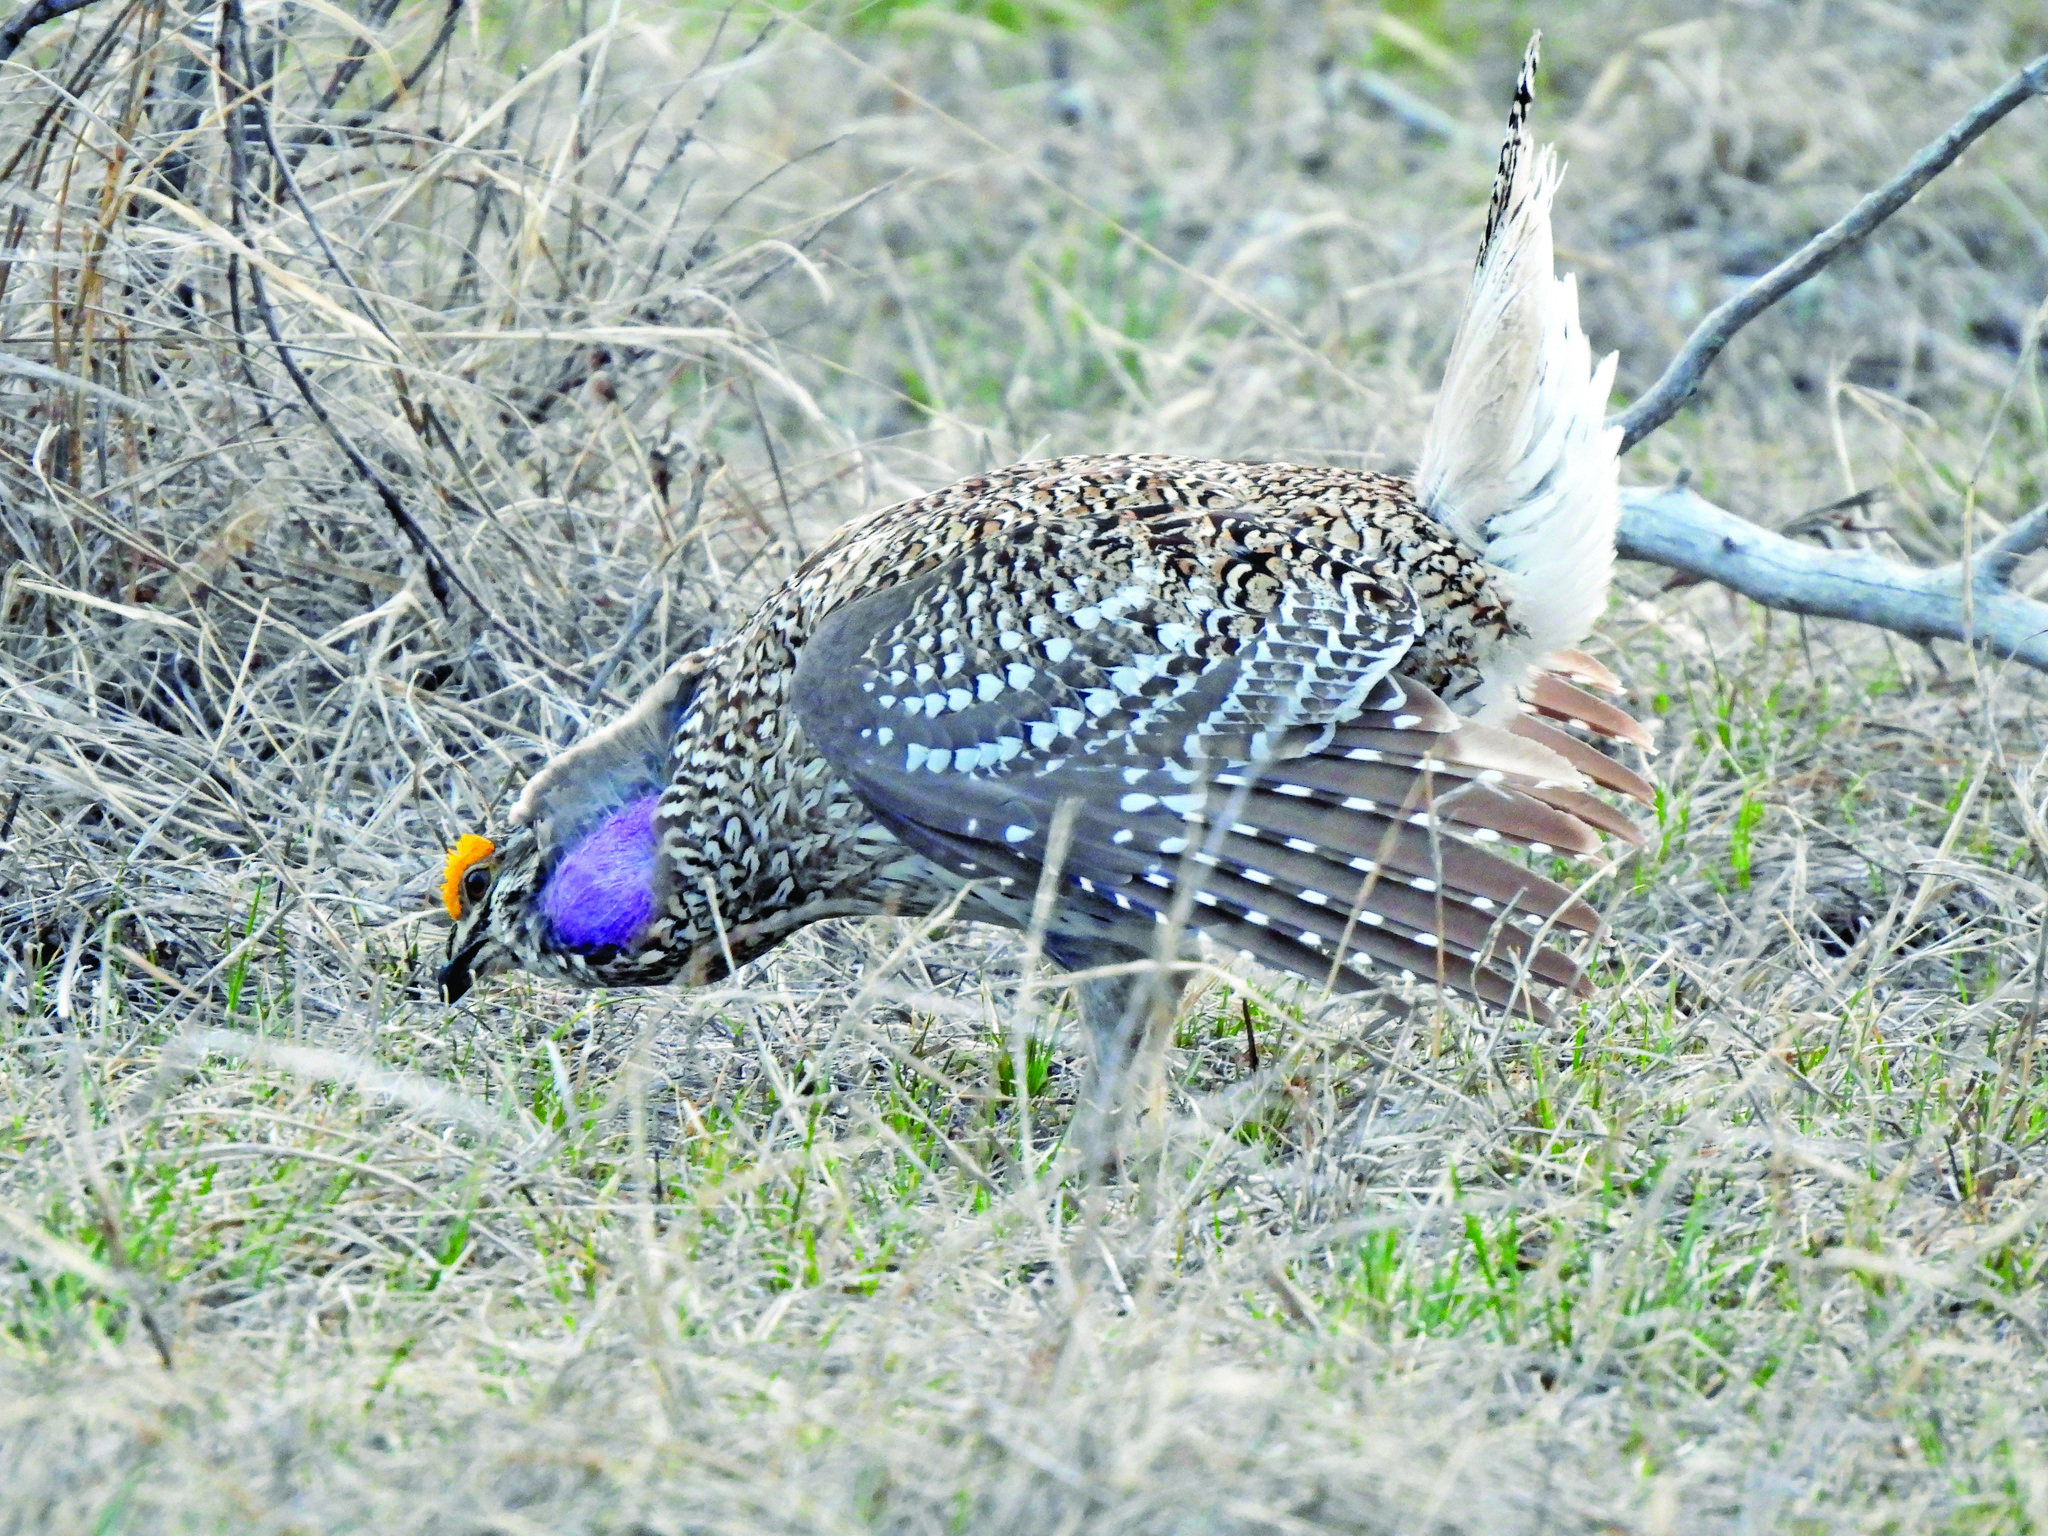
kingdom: Animalia
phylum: Chordata
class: Aves
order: Galliformes
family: Phasianidae
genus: Tympanuchus
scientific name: Tympanuchus phasianellus
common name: Sharp-tailed grouse
